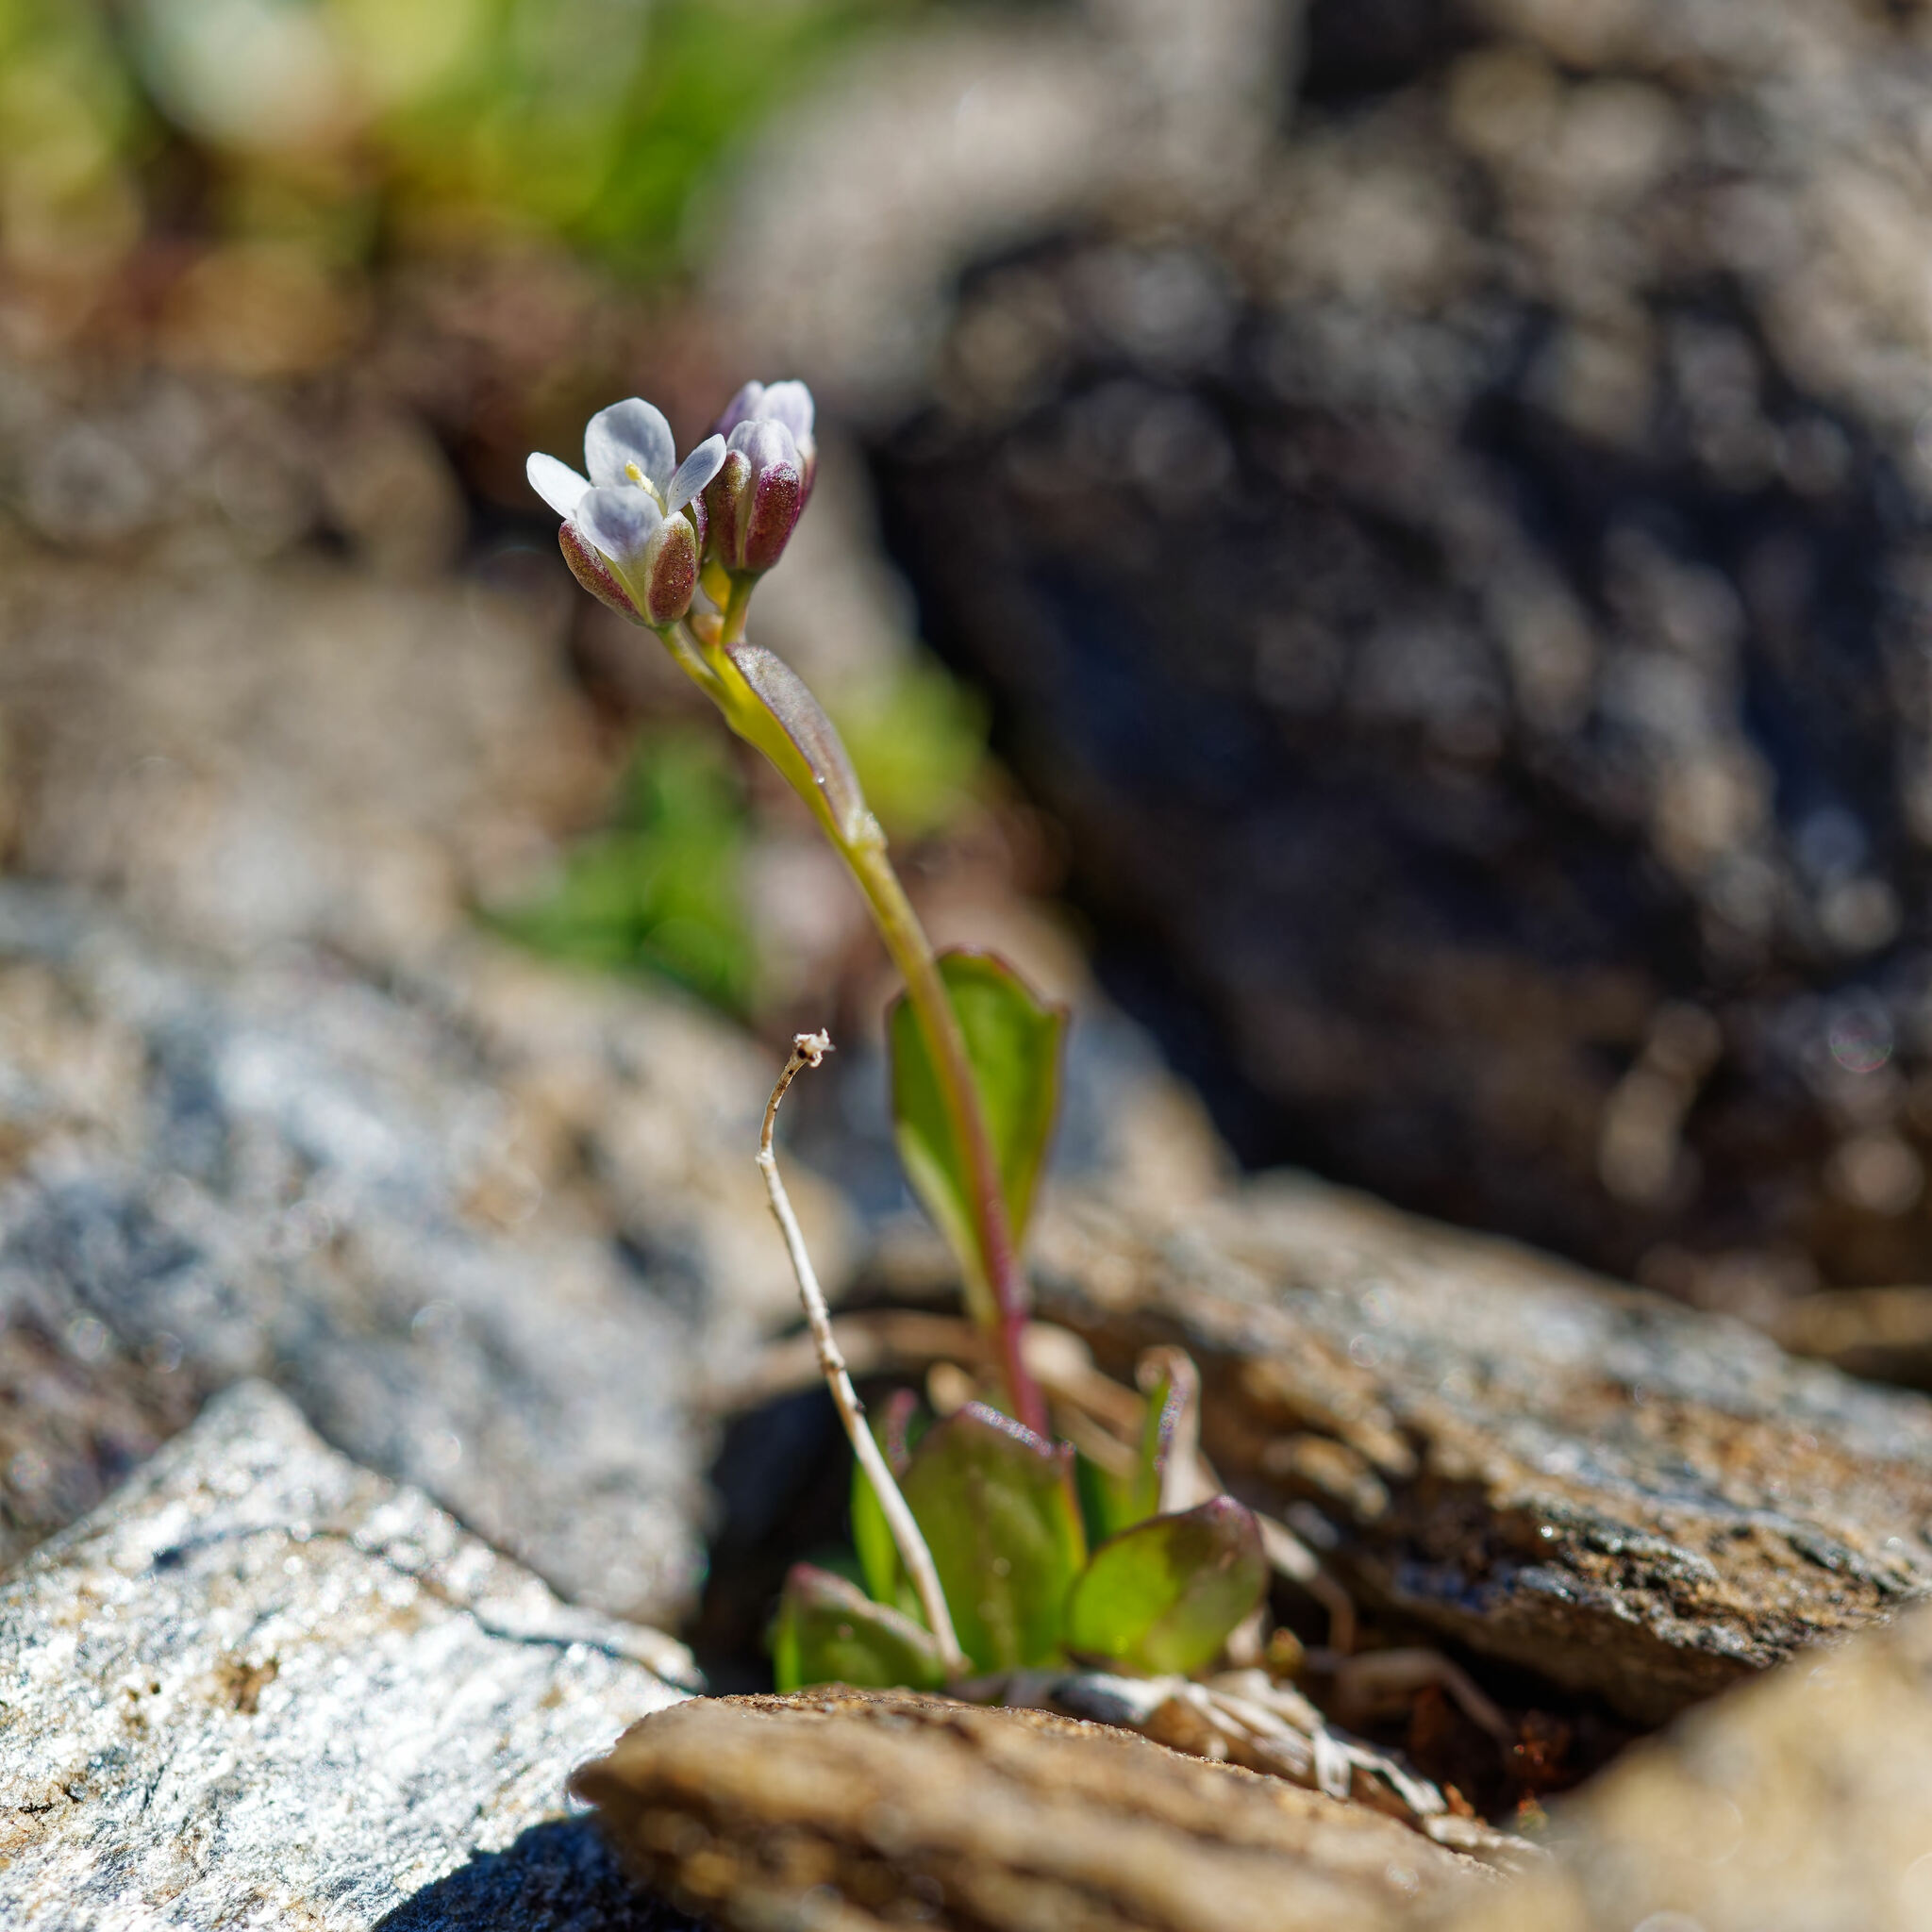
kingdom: Plantae
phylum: Tracheophyta
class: Magnoliopsida
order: Brassicales
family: Brassicaceae
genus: Arabis
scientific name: Arabis caerulea
